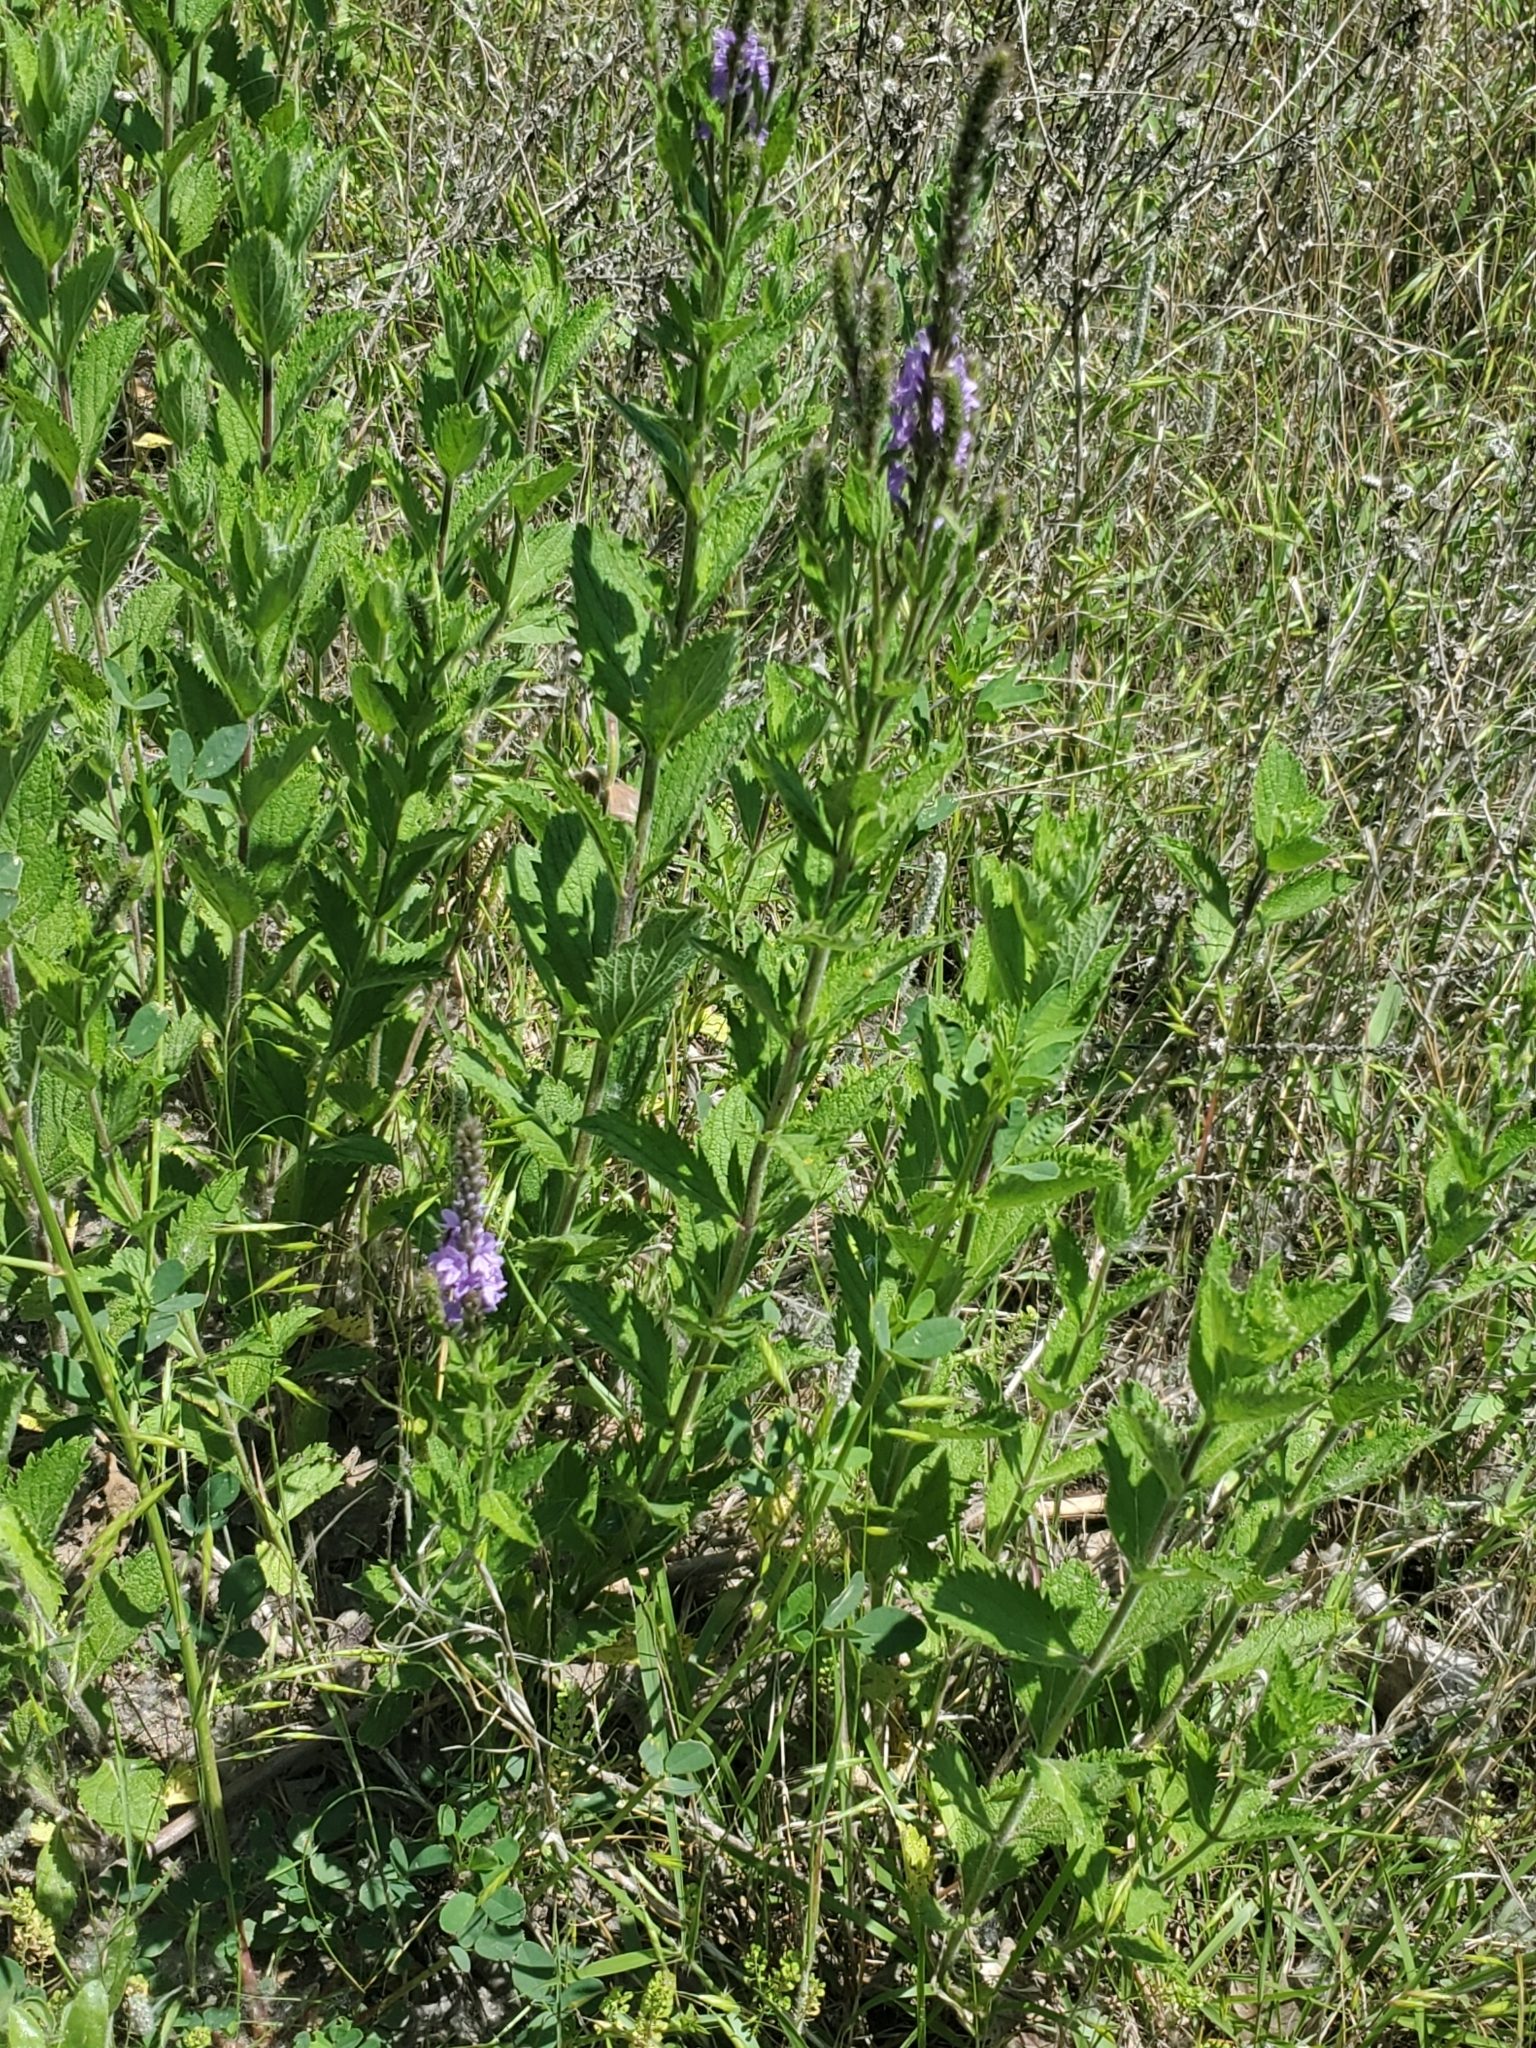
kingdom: Plantae
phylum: Tracheophyta
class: Magnoliopsida
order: Lamiales
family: Verbenaceae
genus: Verbena
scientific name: Verbena stricta
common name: Hoary vervain
